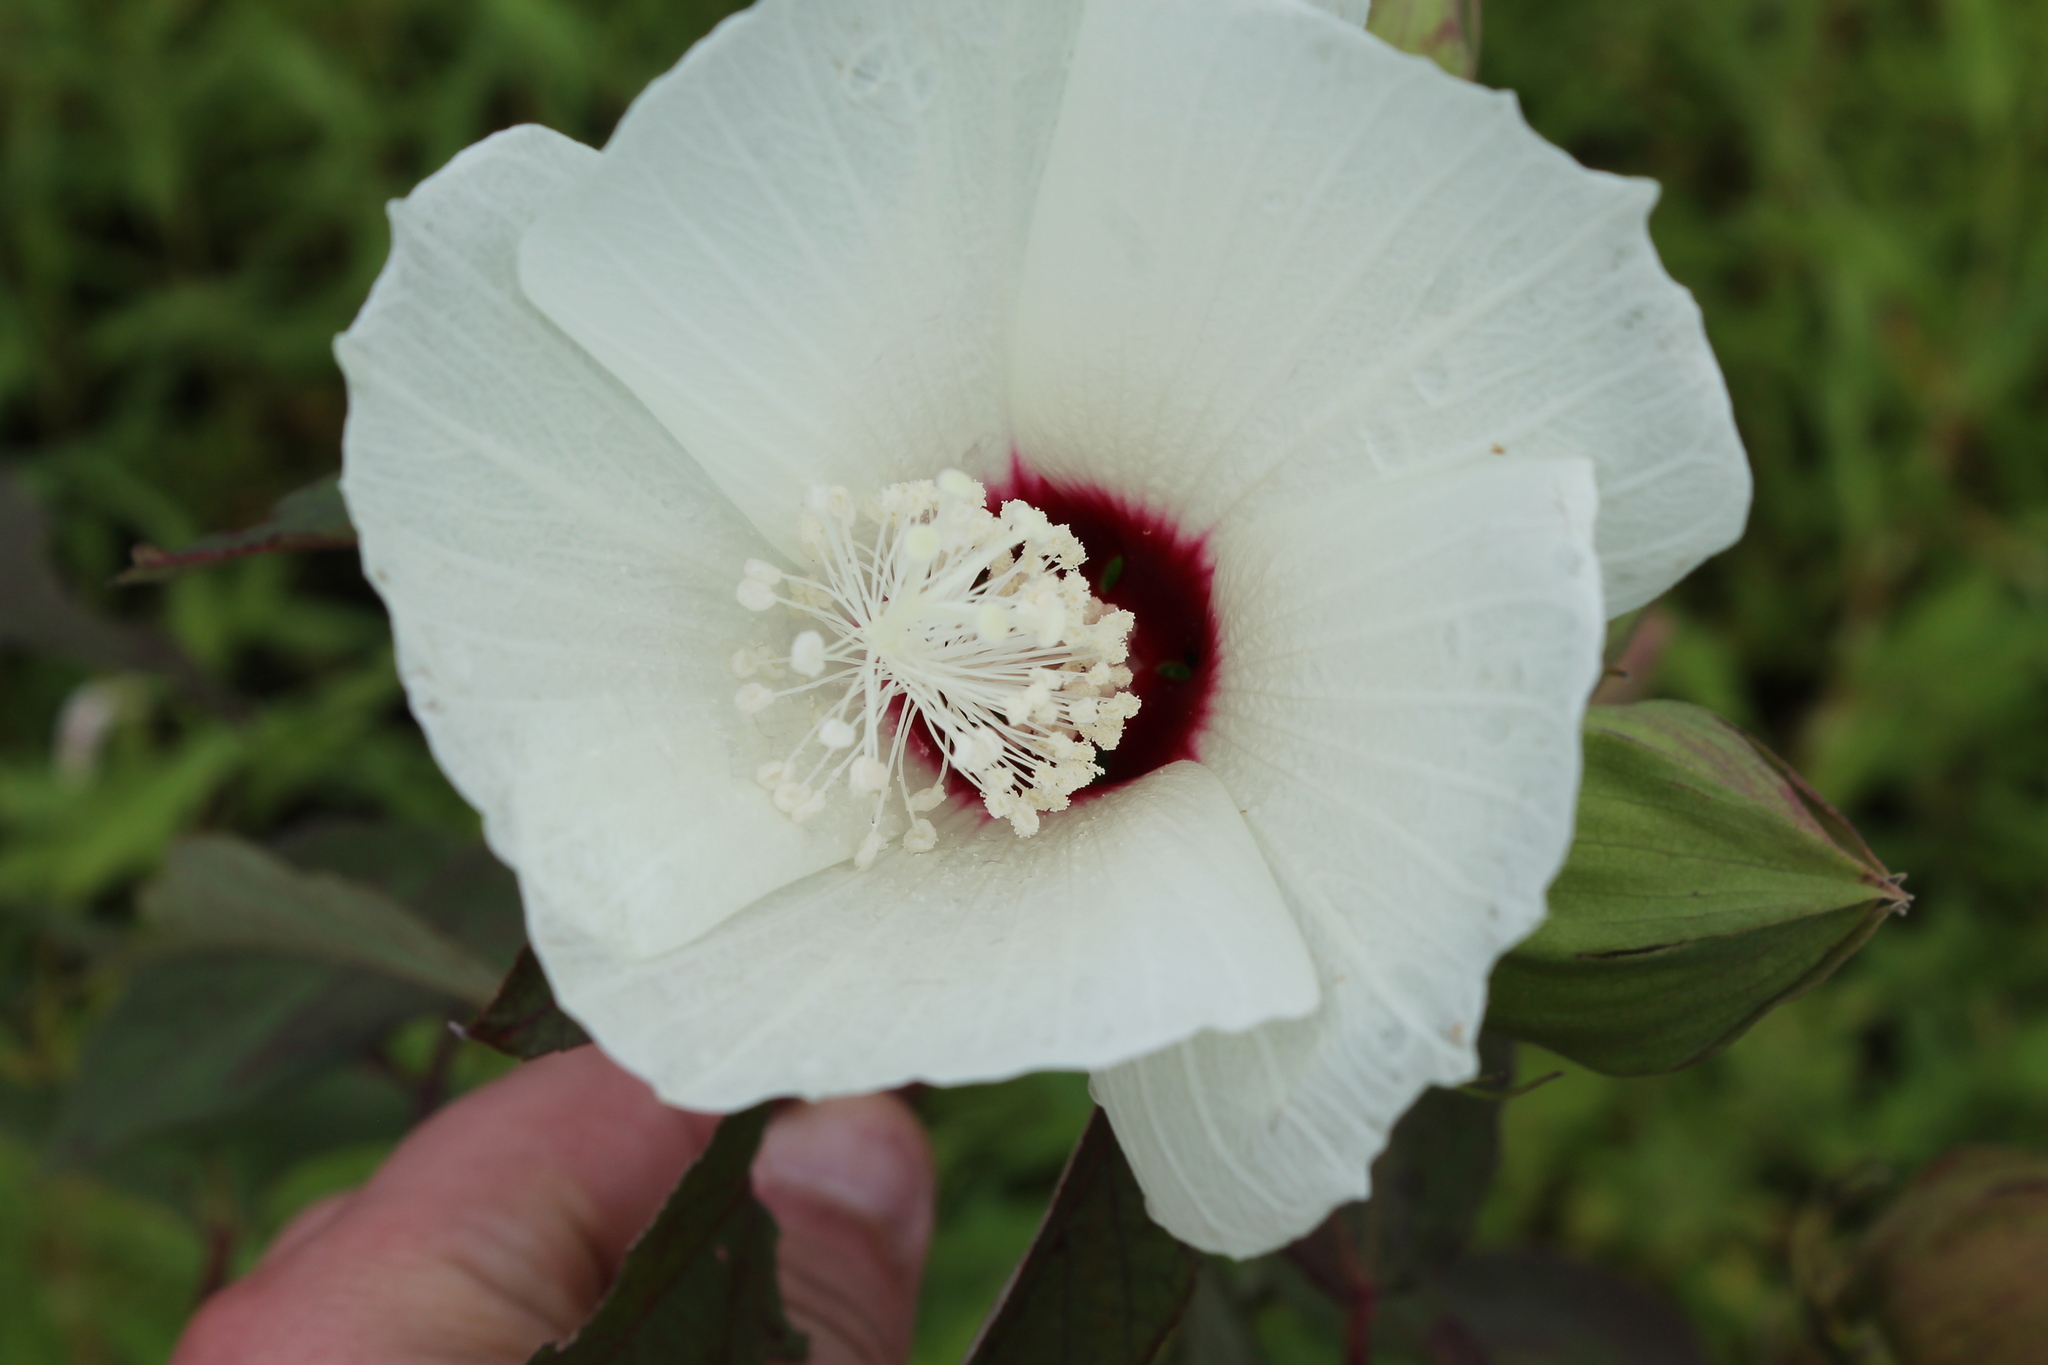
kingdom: Plantae
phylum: Tracheophyta
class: Magnoliopsida
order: Malvales
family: Malvaceae
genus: Hibiscus
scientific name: Hibiscus moscheutos
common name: Common rose-mallow
